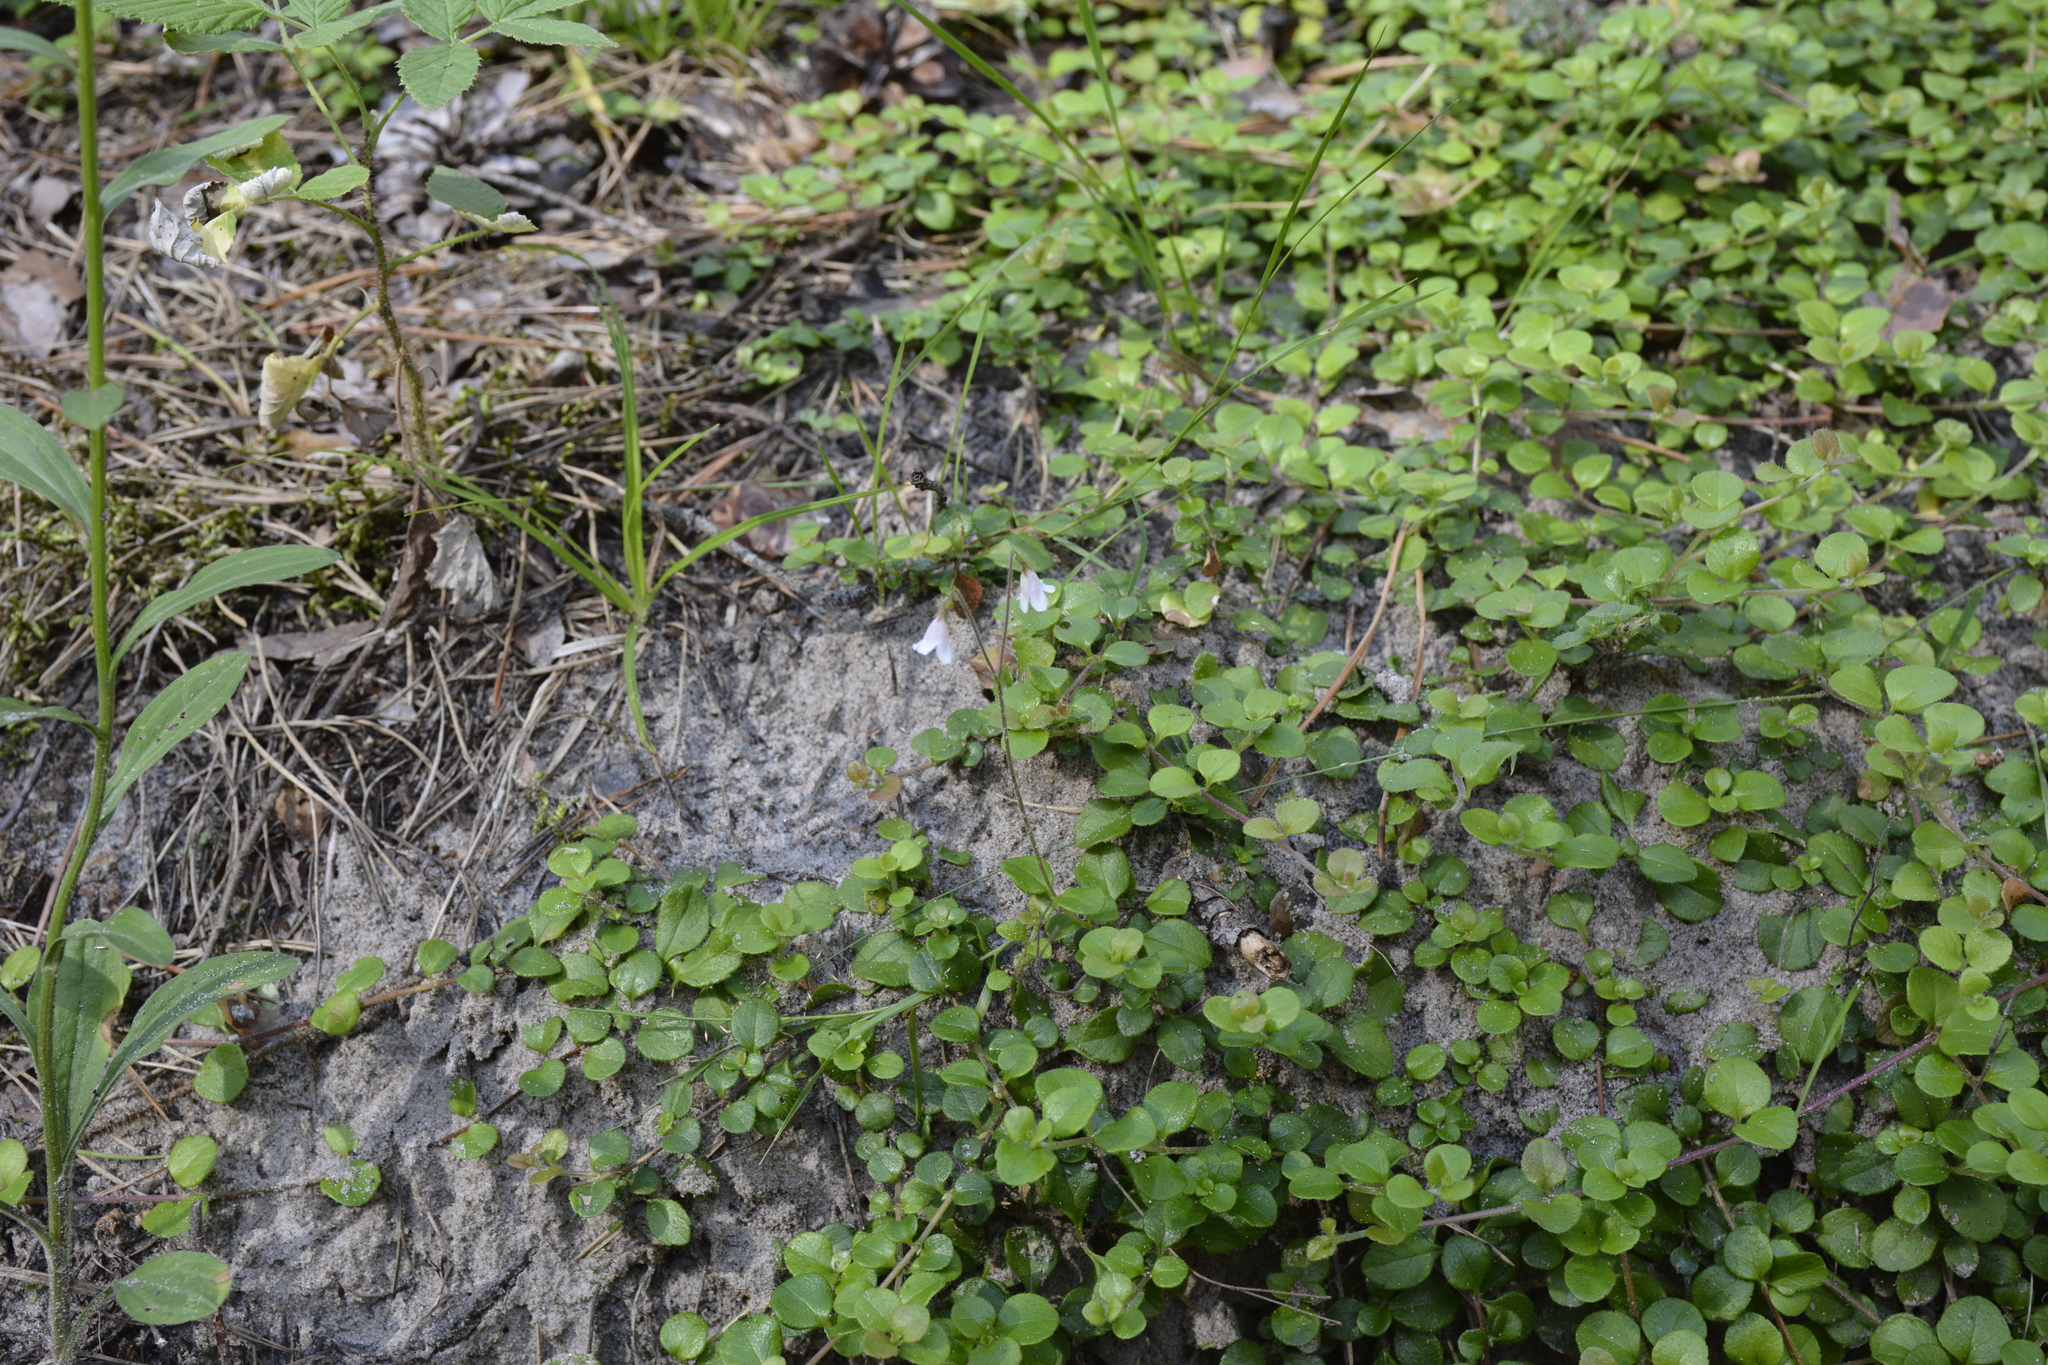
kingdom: Plantae
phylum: Tracheophyta
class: Magnoliopsida
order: Dipsacales
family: Caprifoliaceae
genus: Linnaea
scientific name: Linnaea borealis
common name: Twinflower
